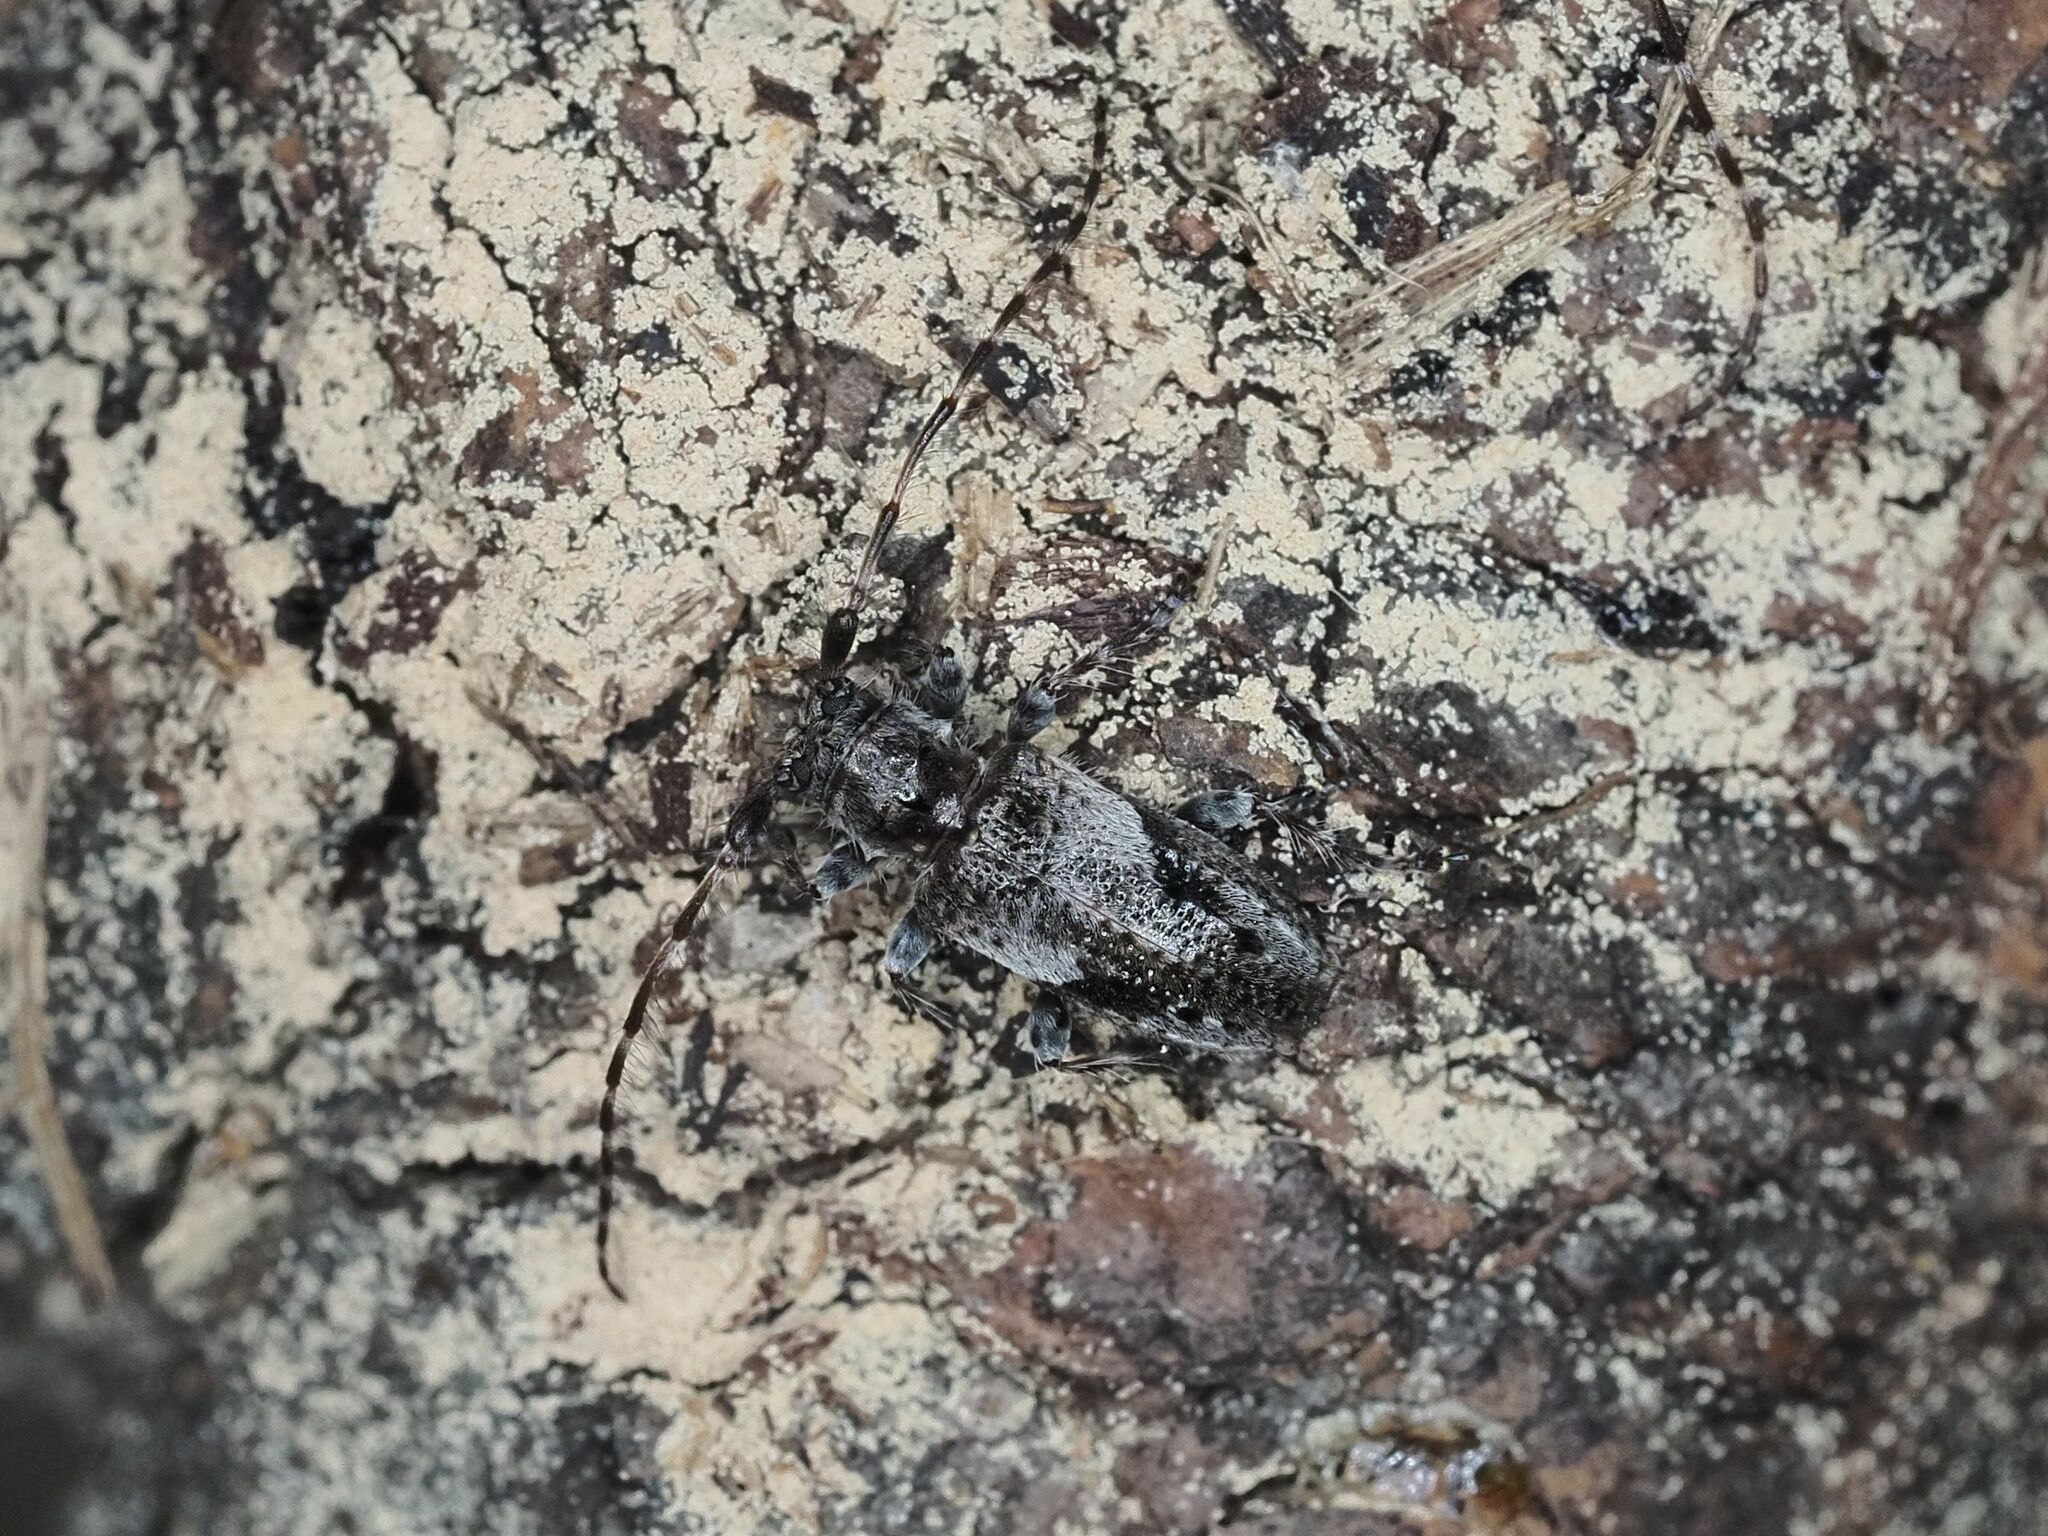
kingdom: Animalia
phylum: Arthropoda
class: Insecta
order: Coleoptera
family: Cerambycidae
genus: Pogonocherus
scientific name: Pogonocherus decoratus
